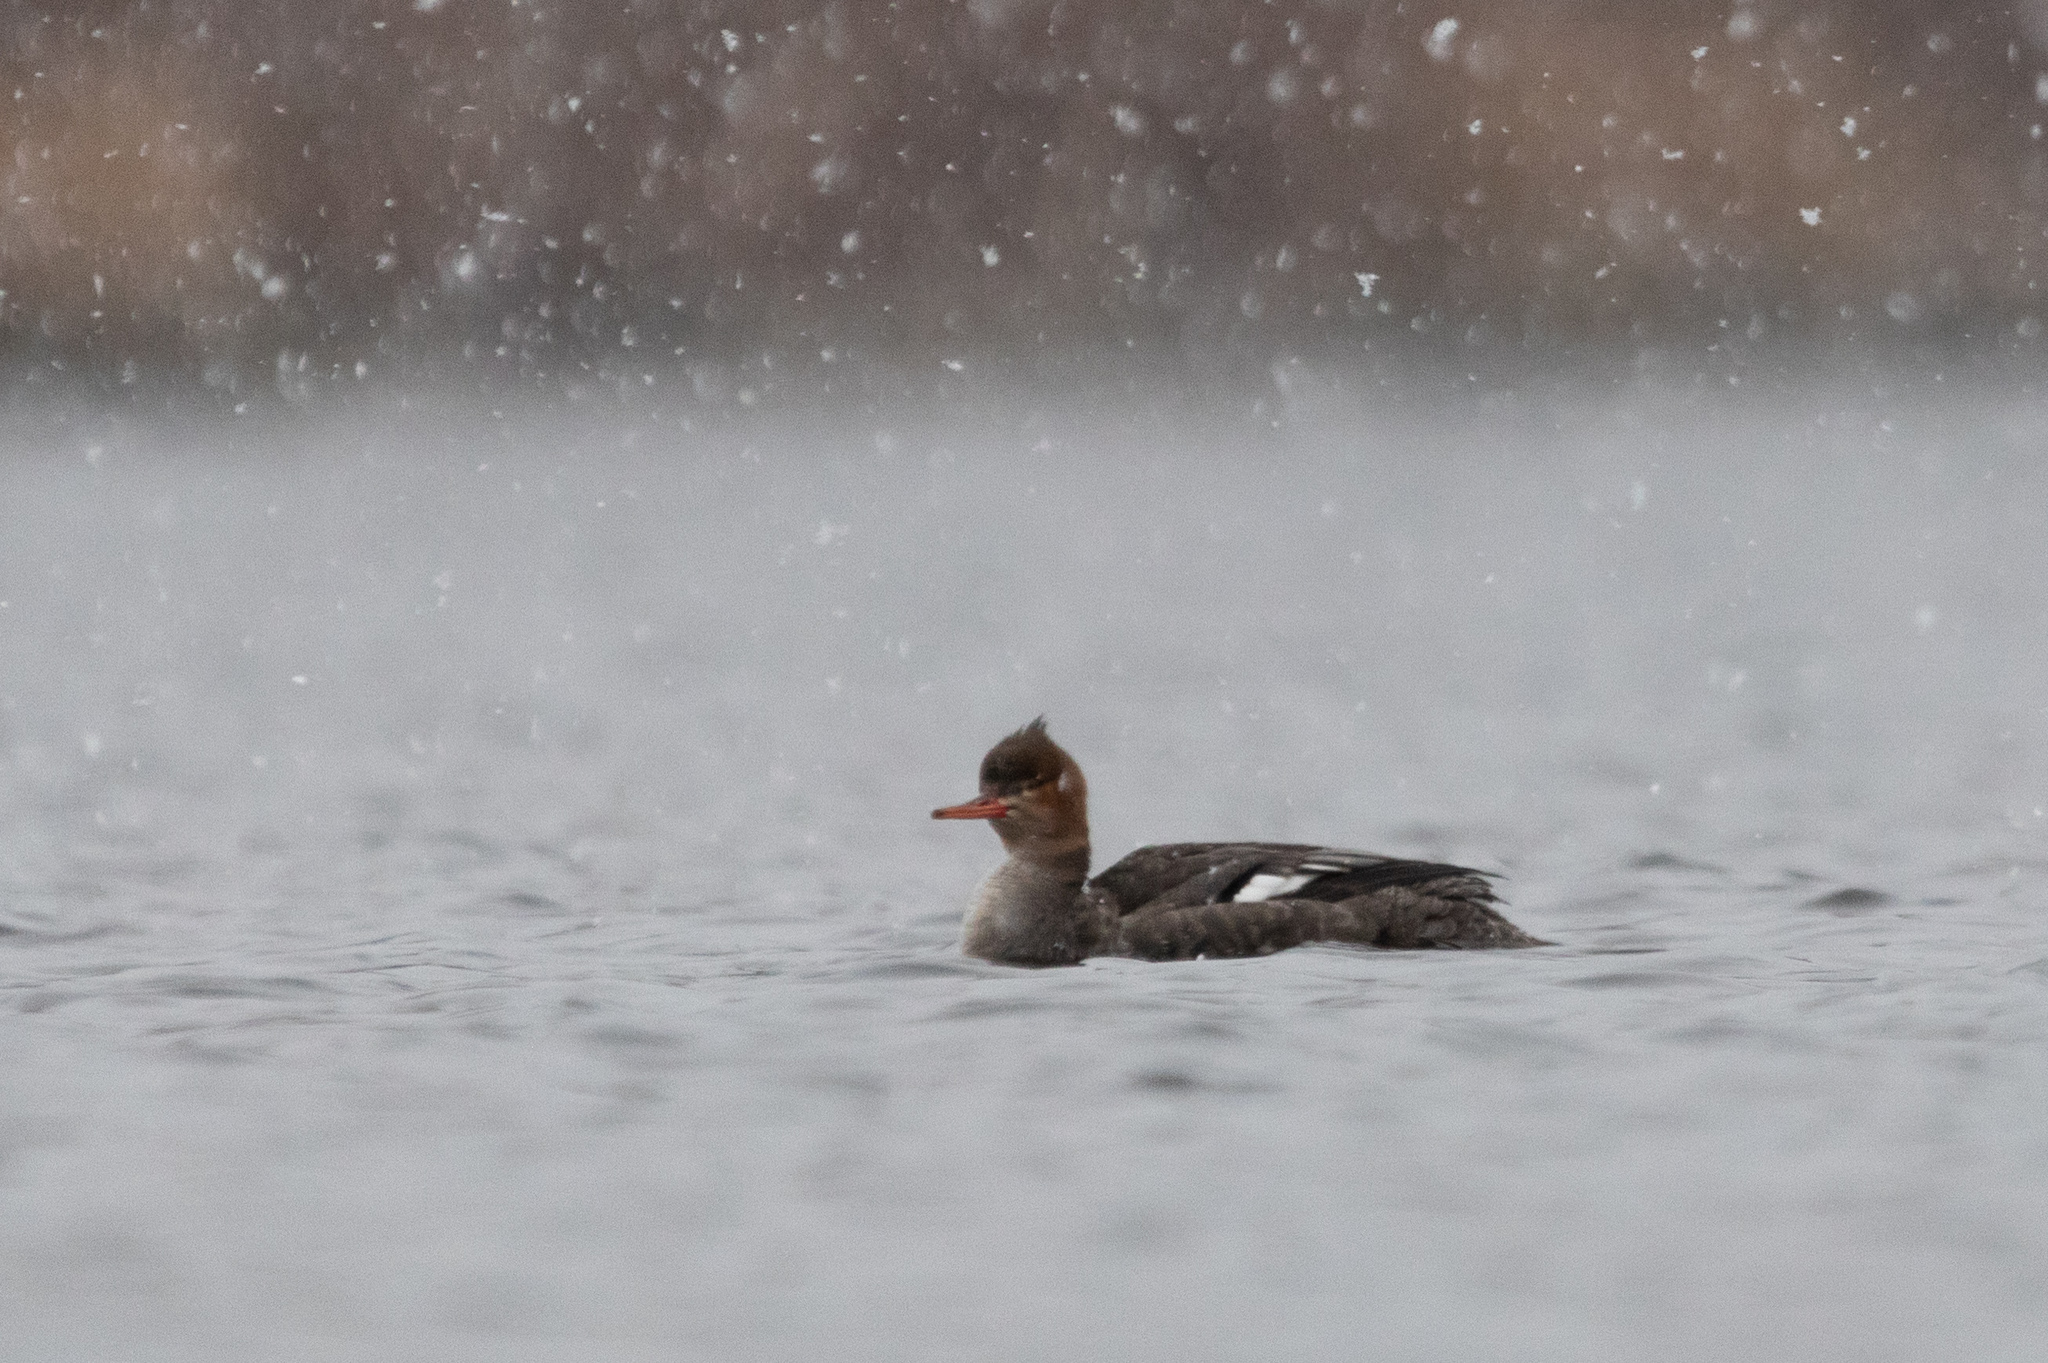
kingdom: Animalia
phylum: Chordata
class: Aves
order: Anseriformes
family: Anatidae
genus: Mergus
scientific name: Mergus serrator
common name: Red-breasted merganser
